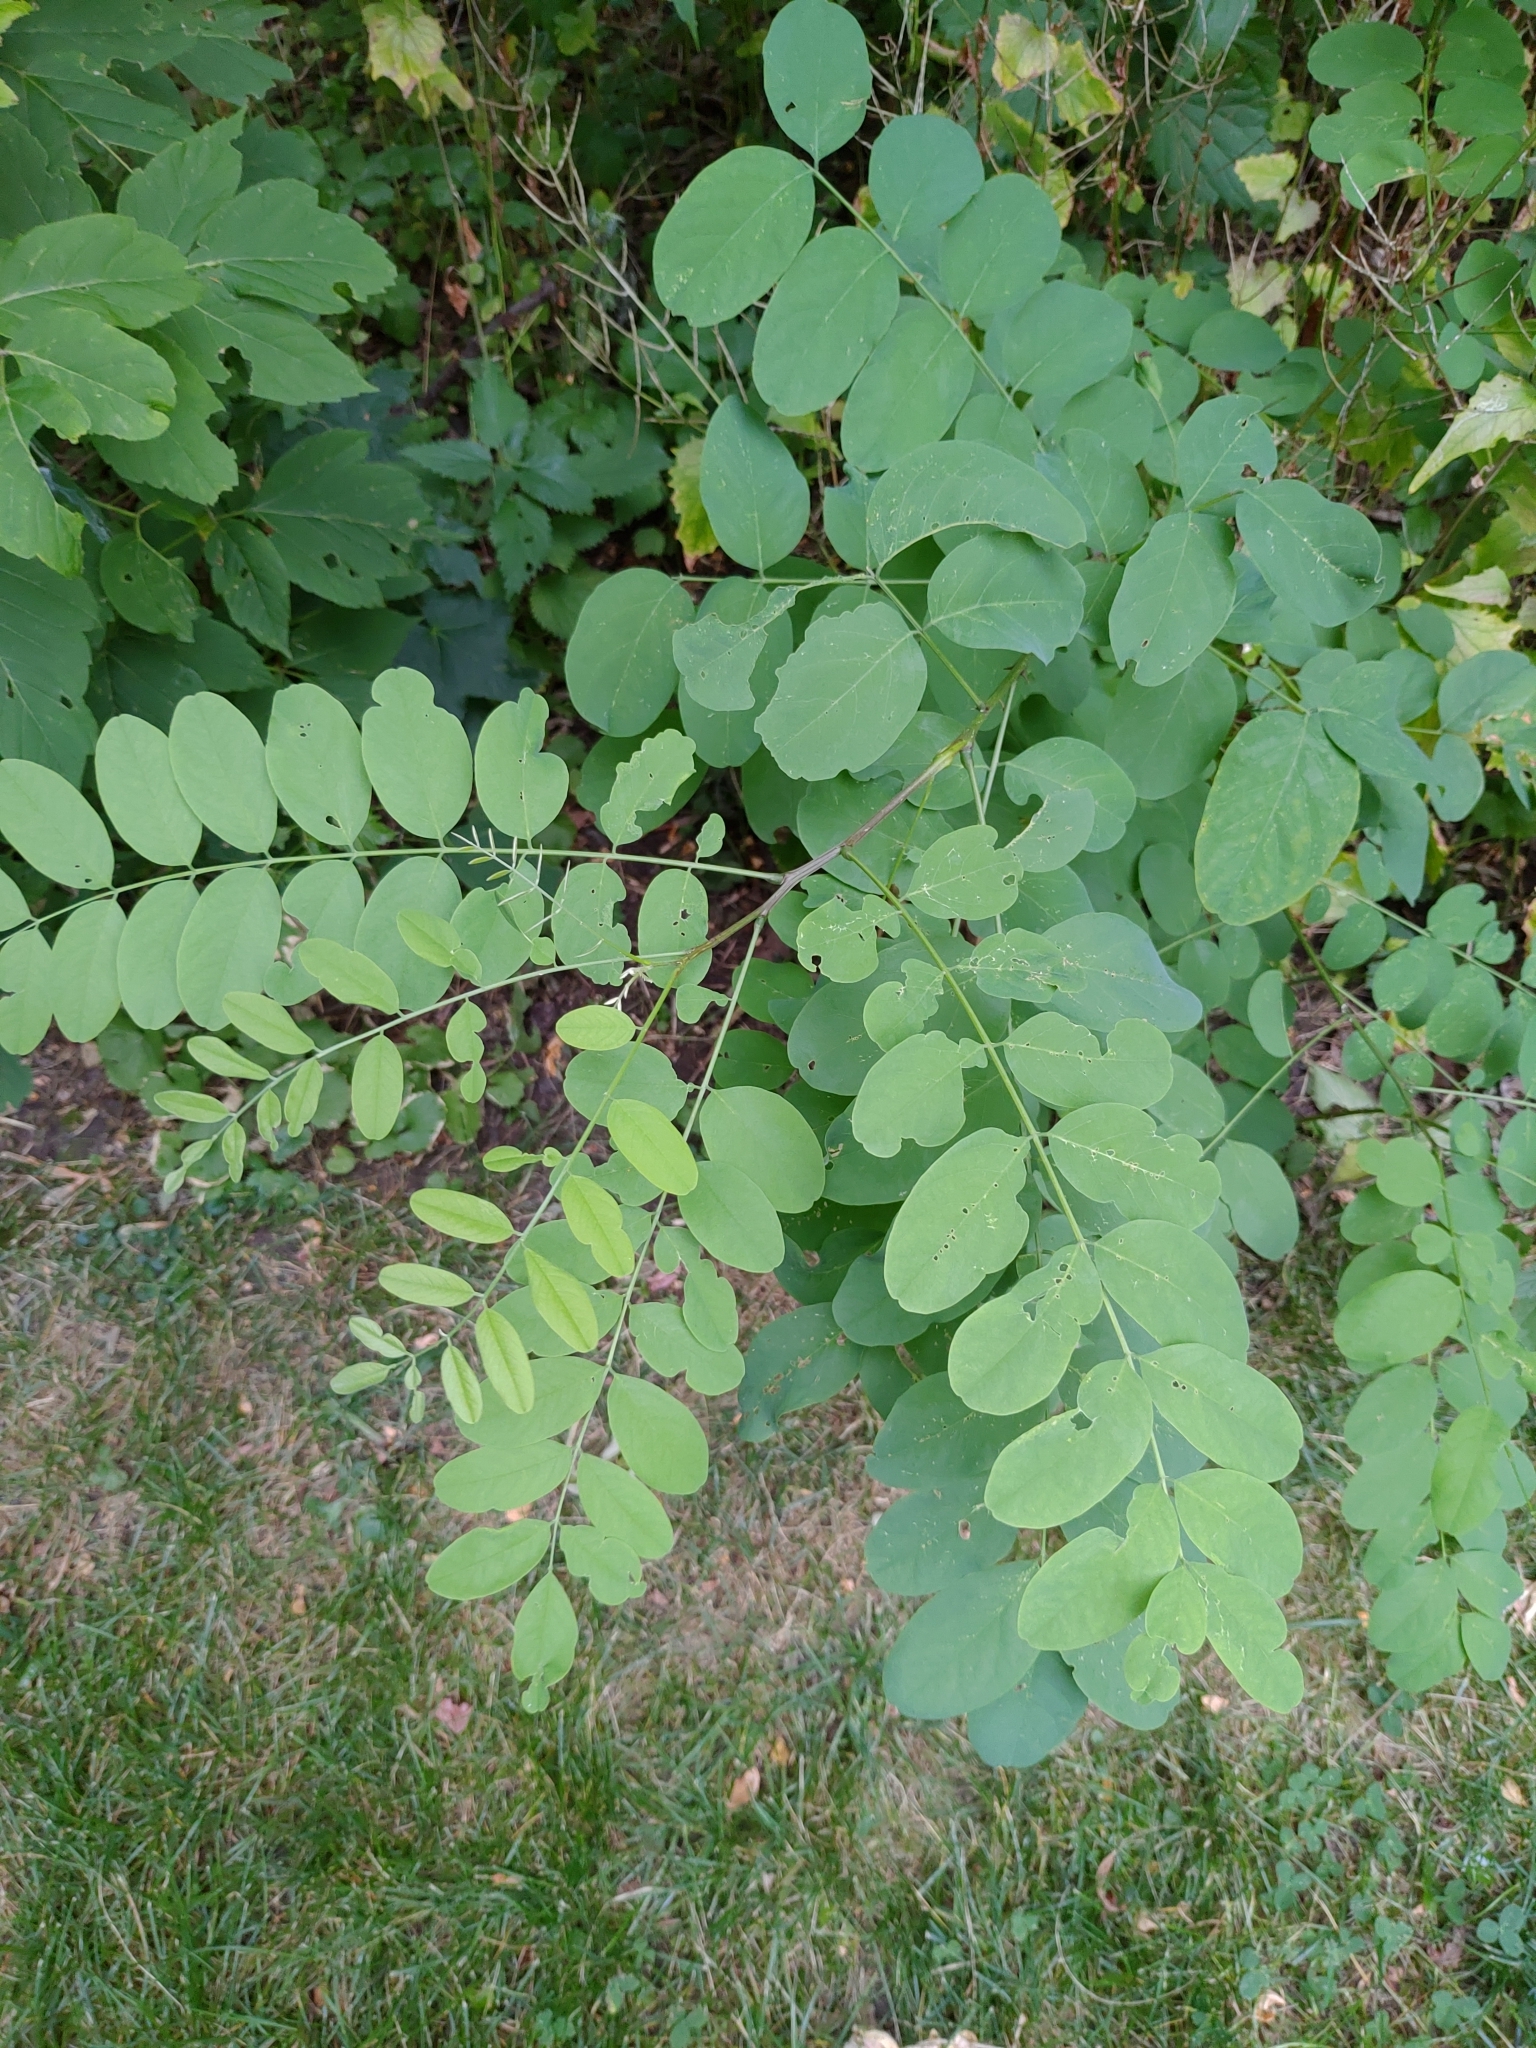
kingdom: Plantae
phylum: Tracheophyta
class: Magnoliopsida
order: Fabales
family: Fabaceae
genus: Robinia
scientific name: Robinia pseudoacacia
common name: Black locust
